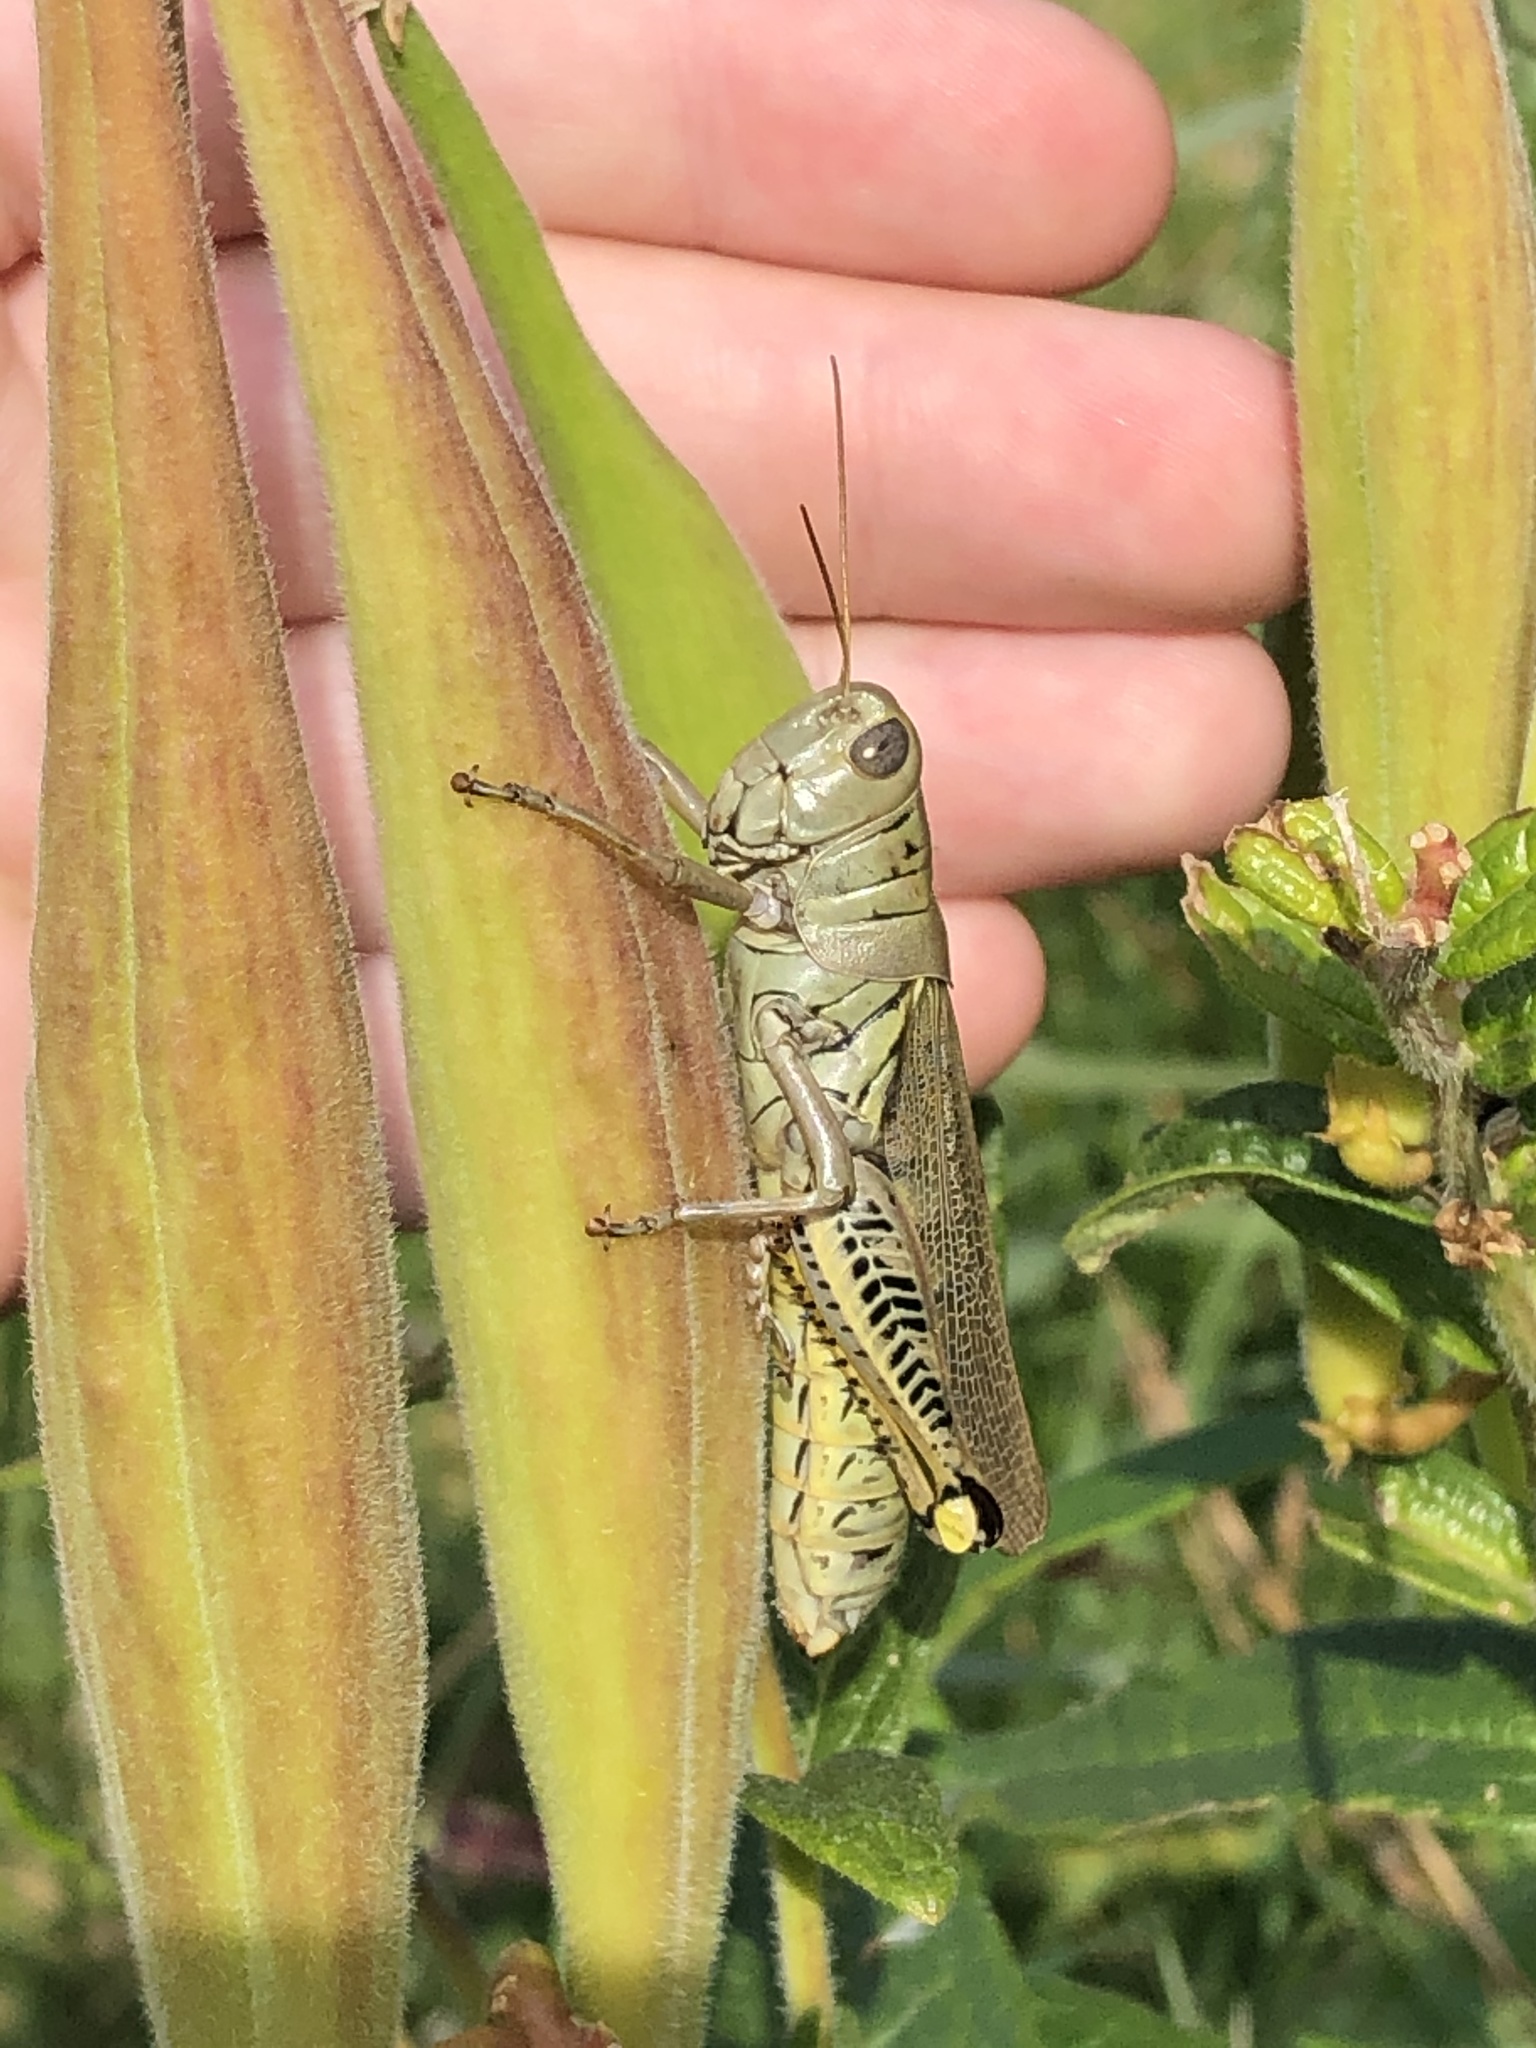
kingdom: Animalia
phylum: Arthropoda
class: Insecta
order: Orthoptera
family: Acrididae
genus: Melanoplus
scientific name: Melanoplus differentialis
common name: Differential grasshopper
